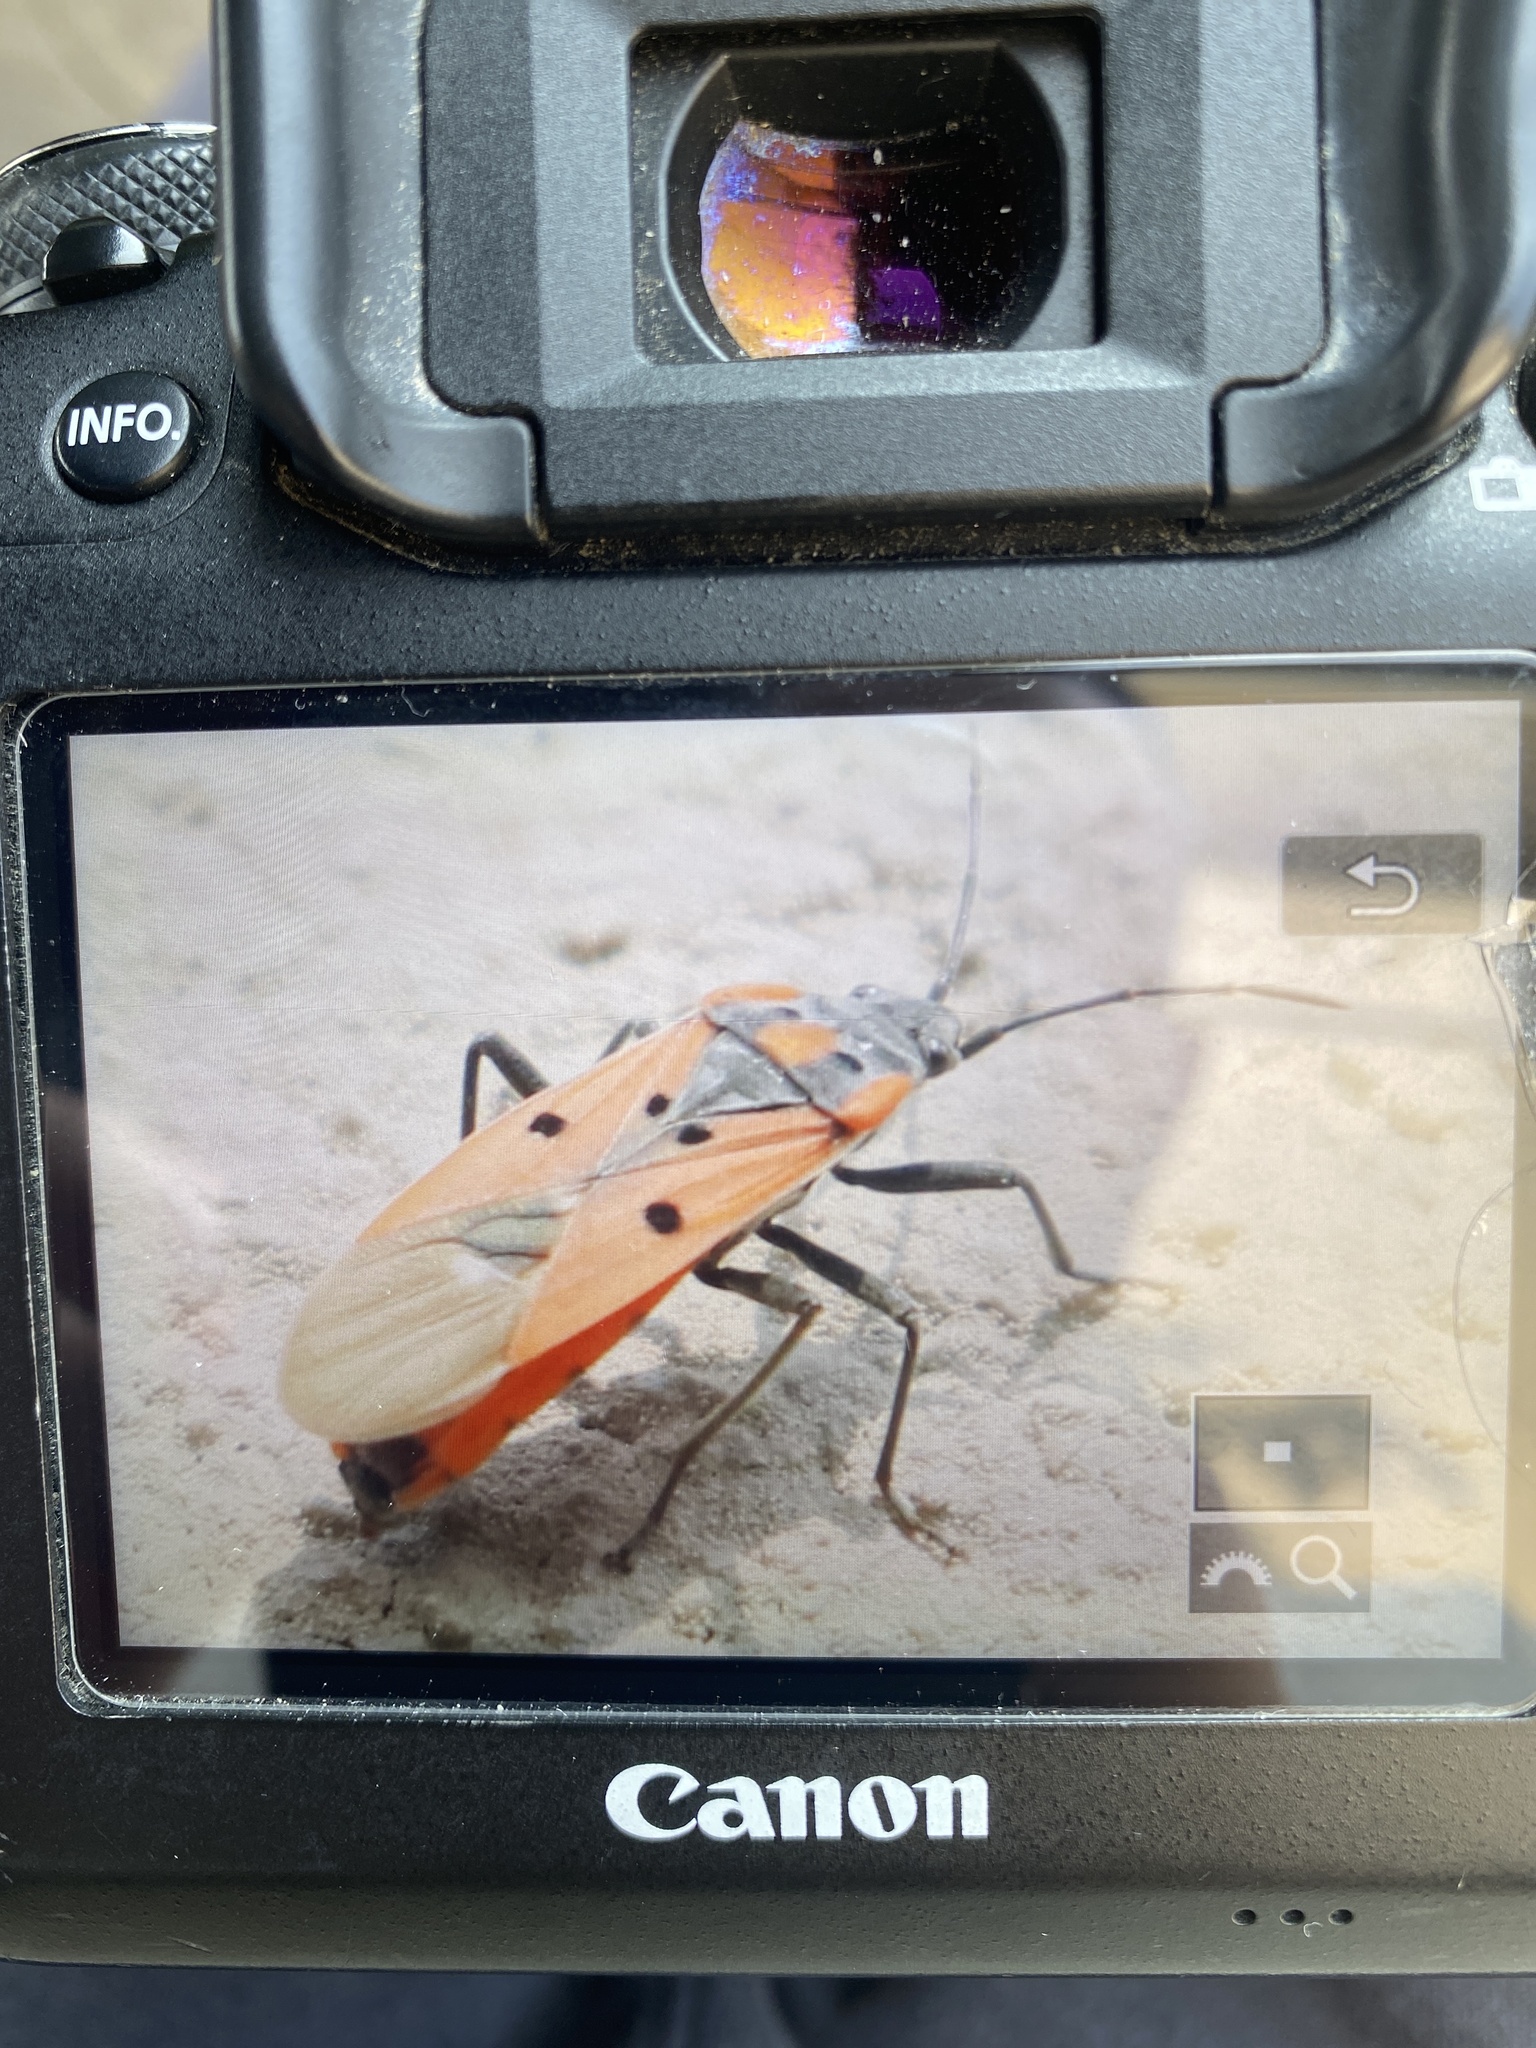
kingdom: Animalia
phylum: Arthropoda
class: Insecta
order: Hemiptera
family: Lygaeidae
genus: Lygaeus
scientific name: Lygaeus creticus
